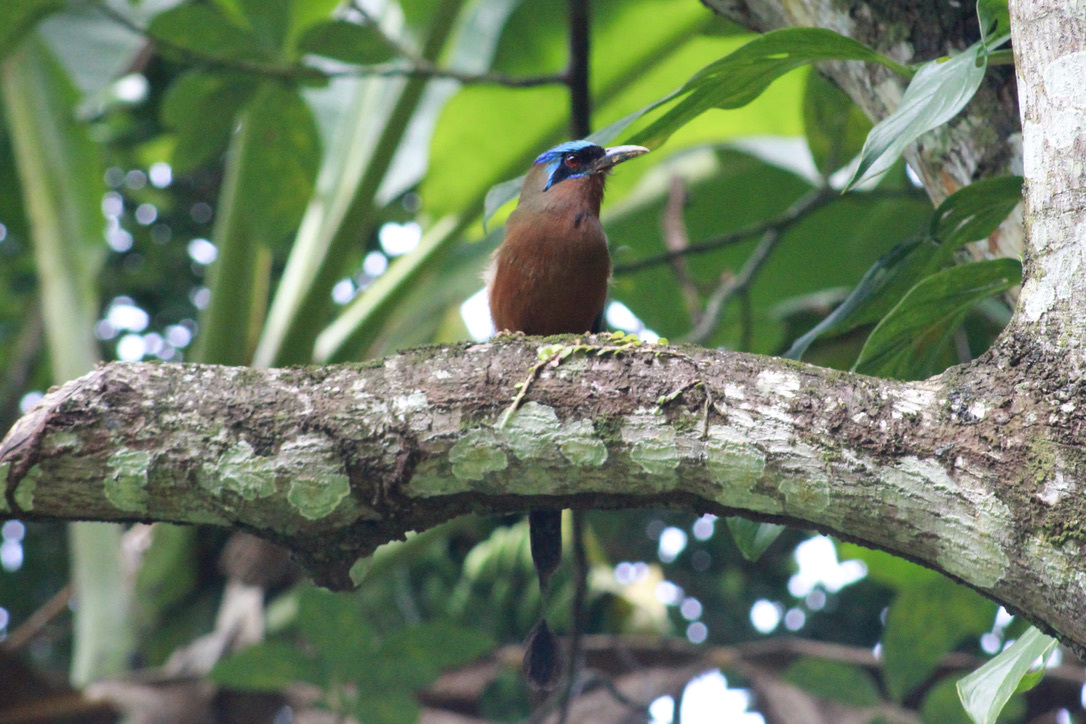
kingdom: Animalia
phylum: Chordata
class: Aves
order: Coraciiformes
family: Momotidae
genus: Momotus
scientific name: Momotus bahamensis
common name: Trinidad motmot
